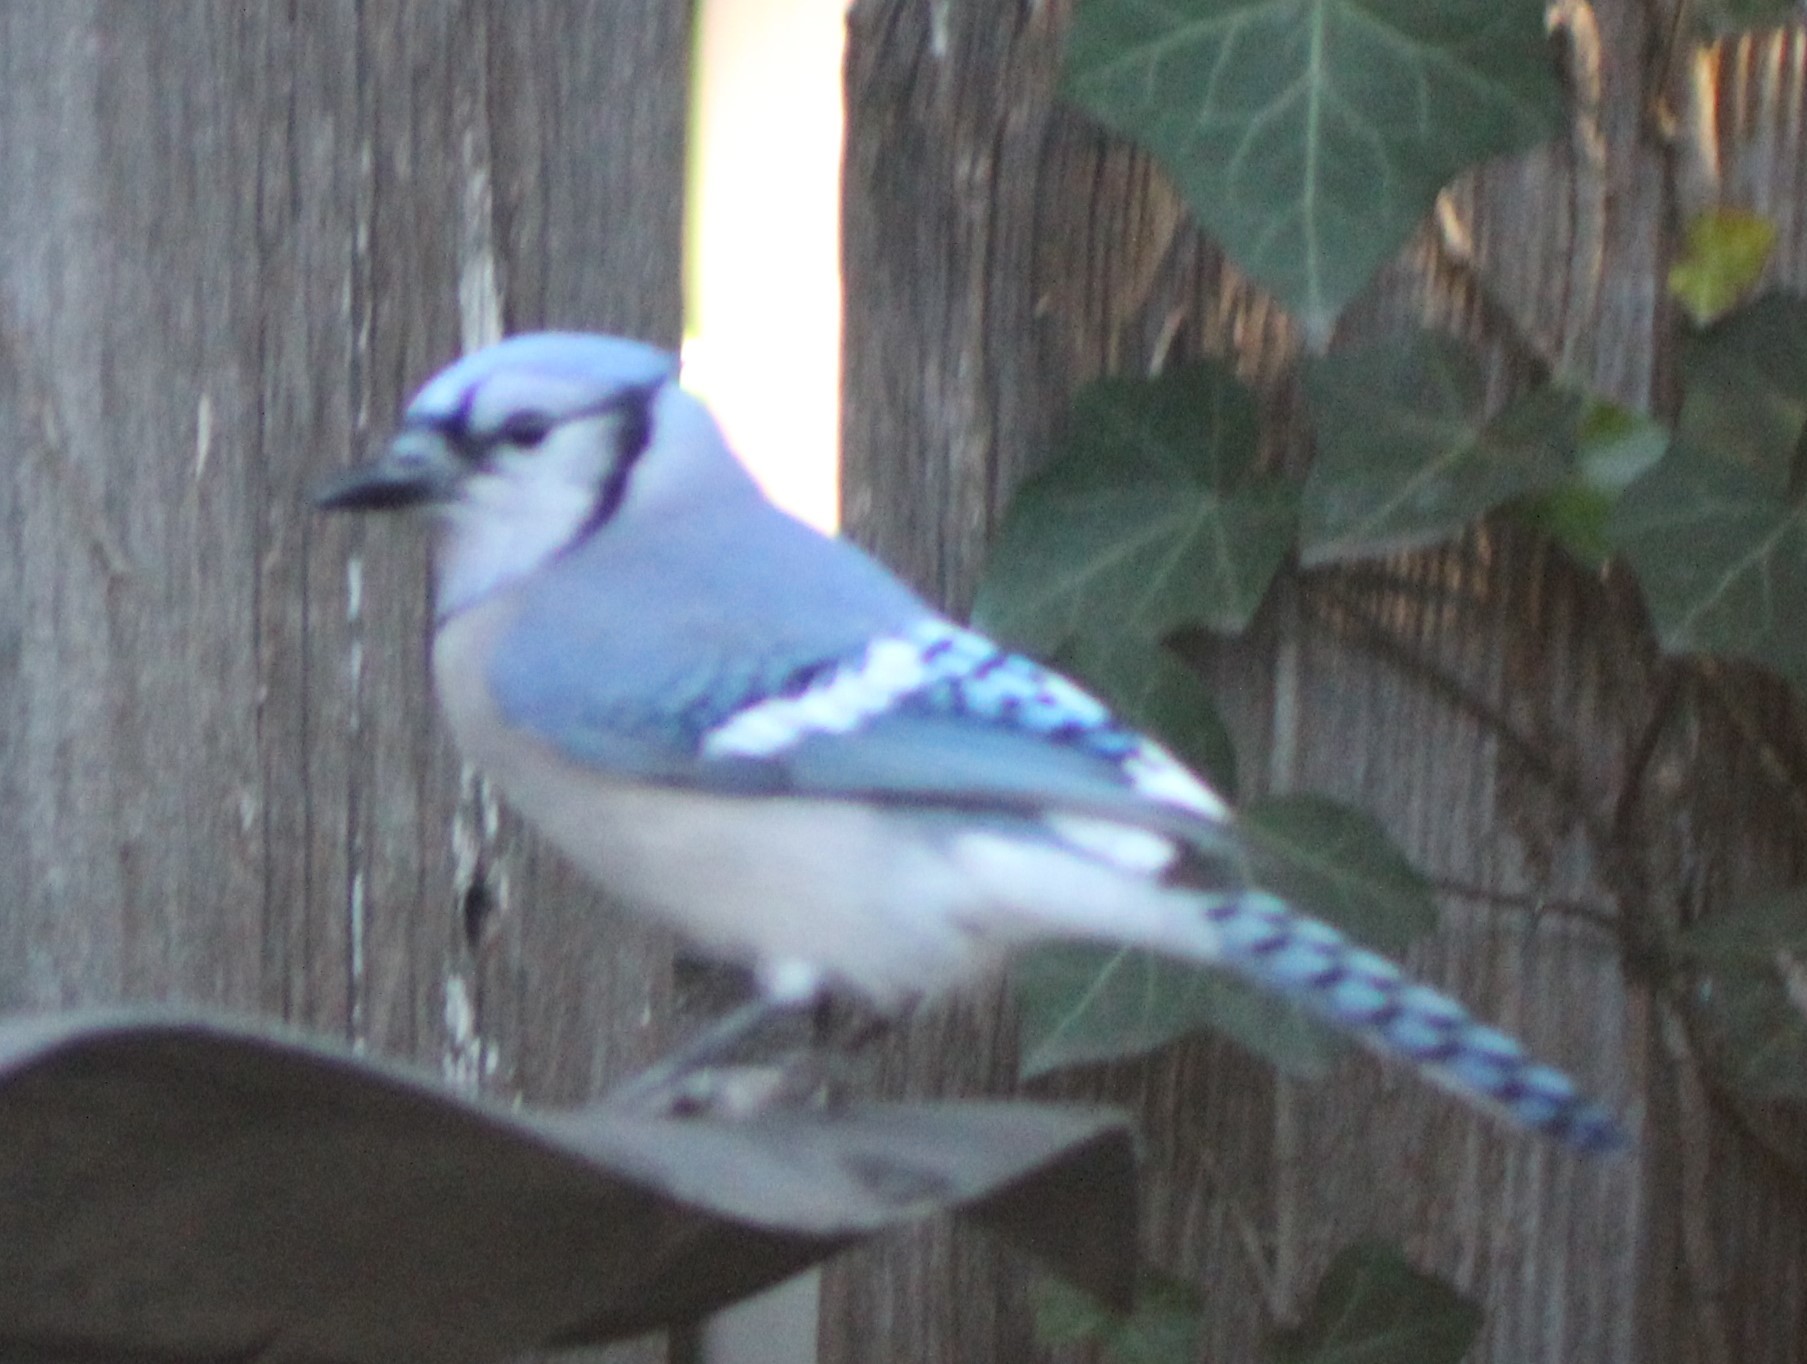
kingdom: Animalia
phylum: Chordata
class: Aves
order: Passeriformes
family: Corvidae
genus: Cyanocitta
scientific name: Cyanocitta cristata
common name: Blue jay
